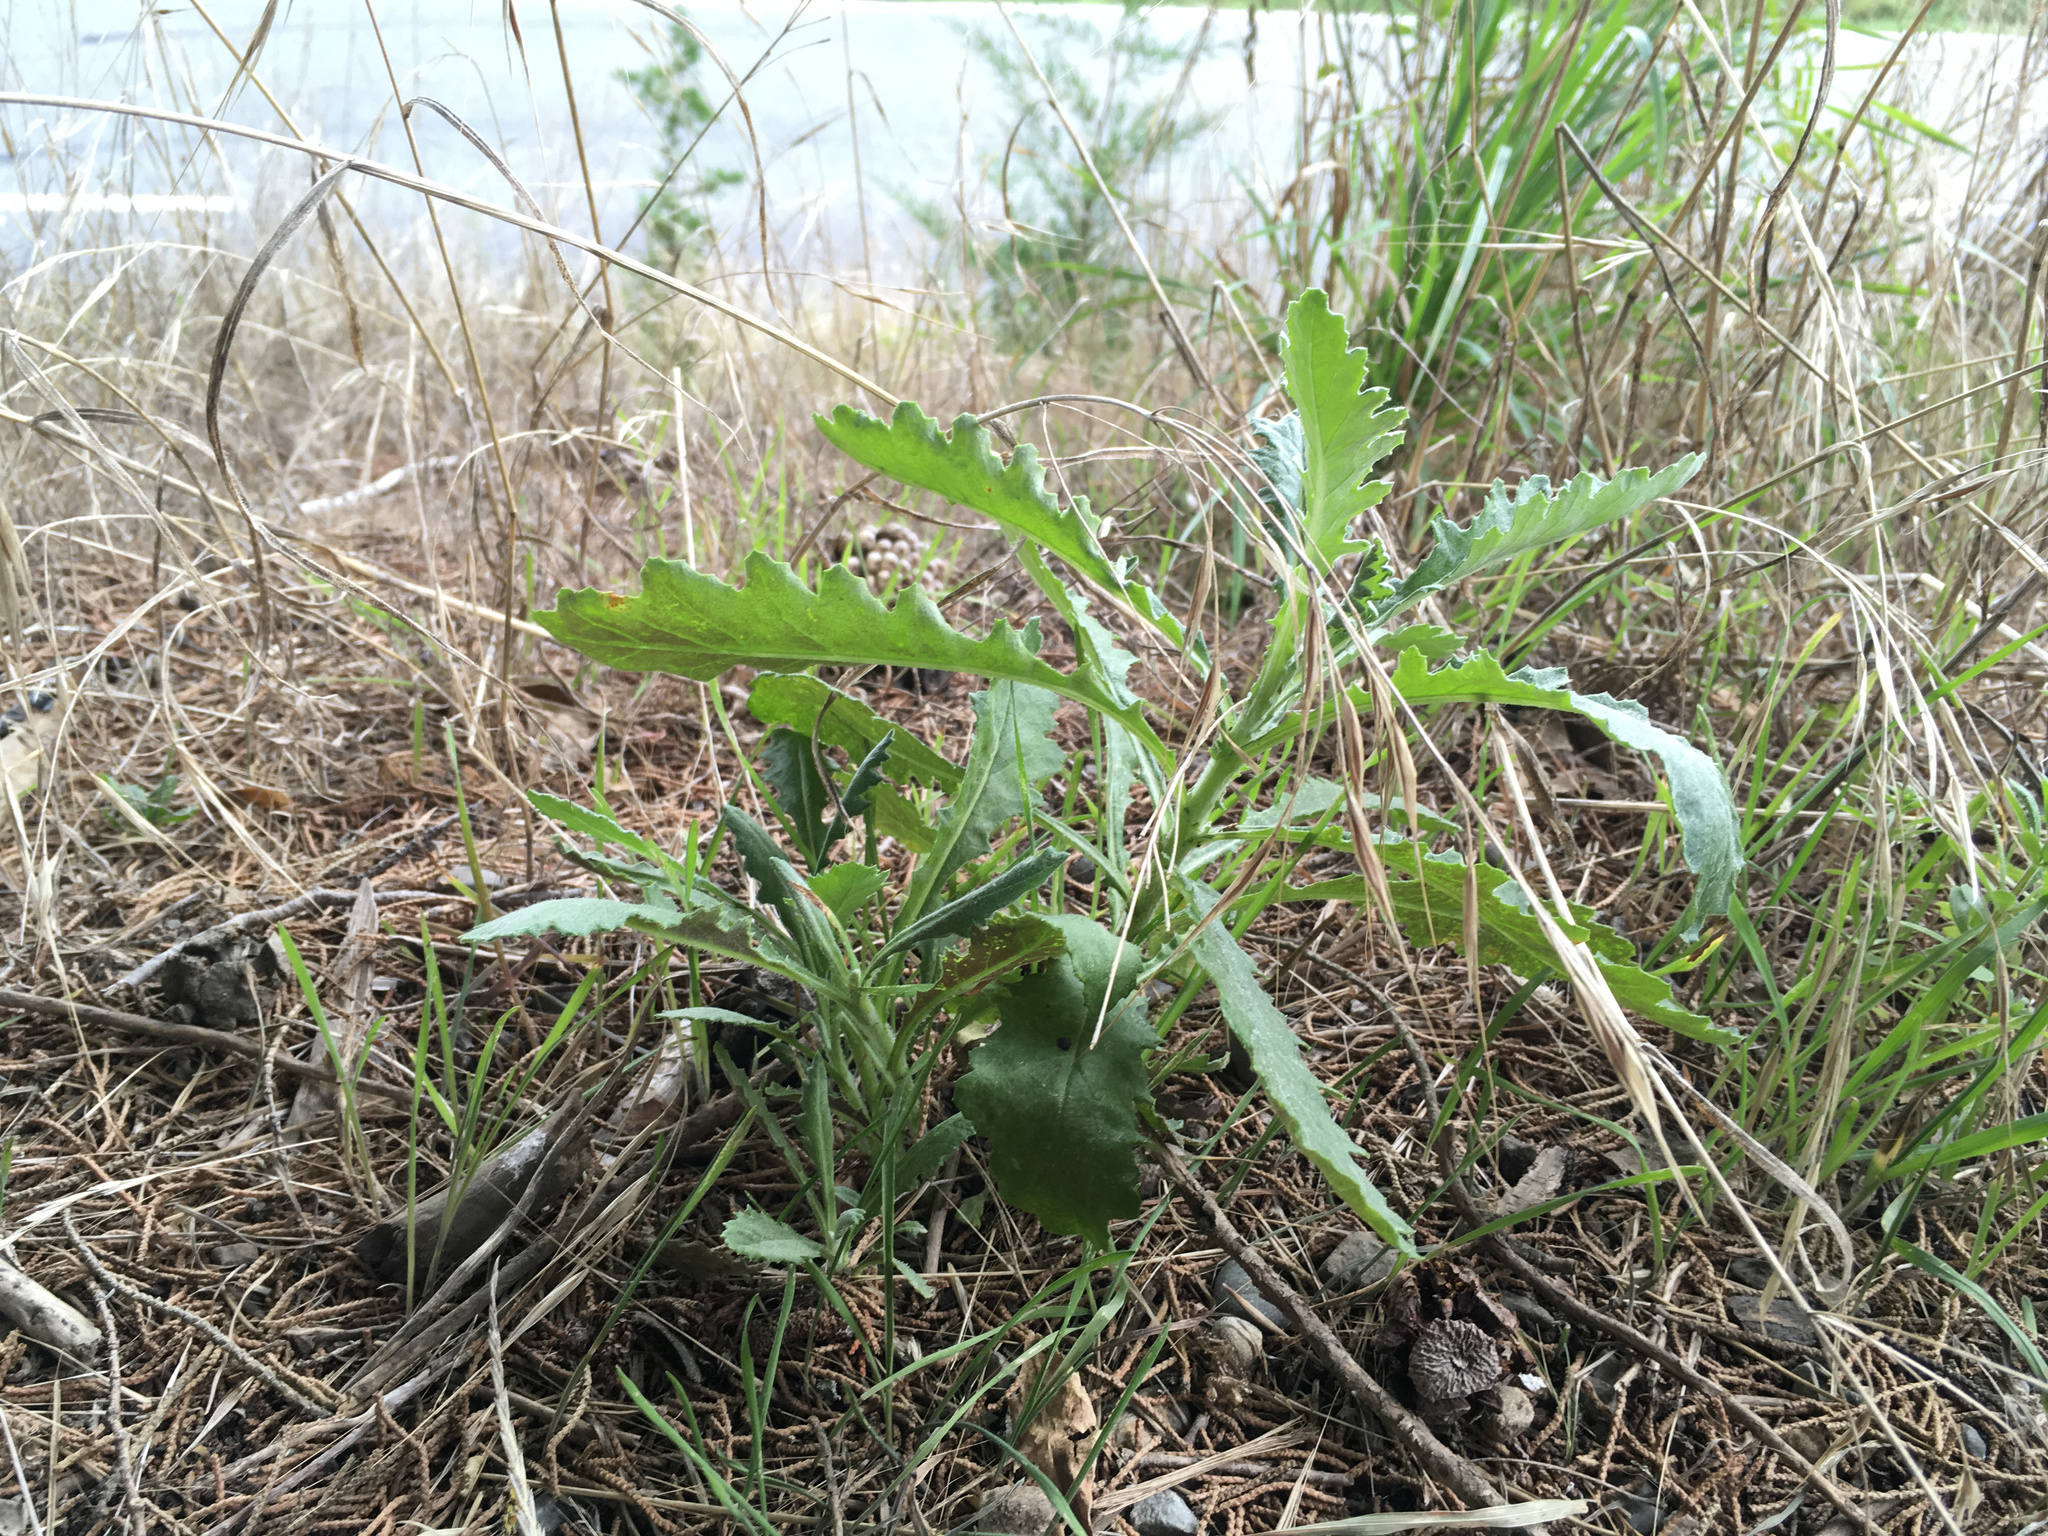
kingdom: Plantae
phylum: Tracheophyta
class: Magnoliopsida
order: Asterales
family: Asteraceae
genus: Senecio
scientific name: Senecio glomeratus
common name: Cutleaf burnweed
